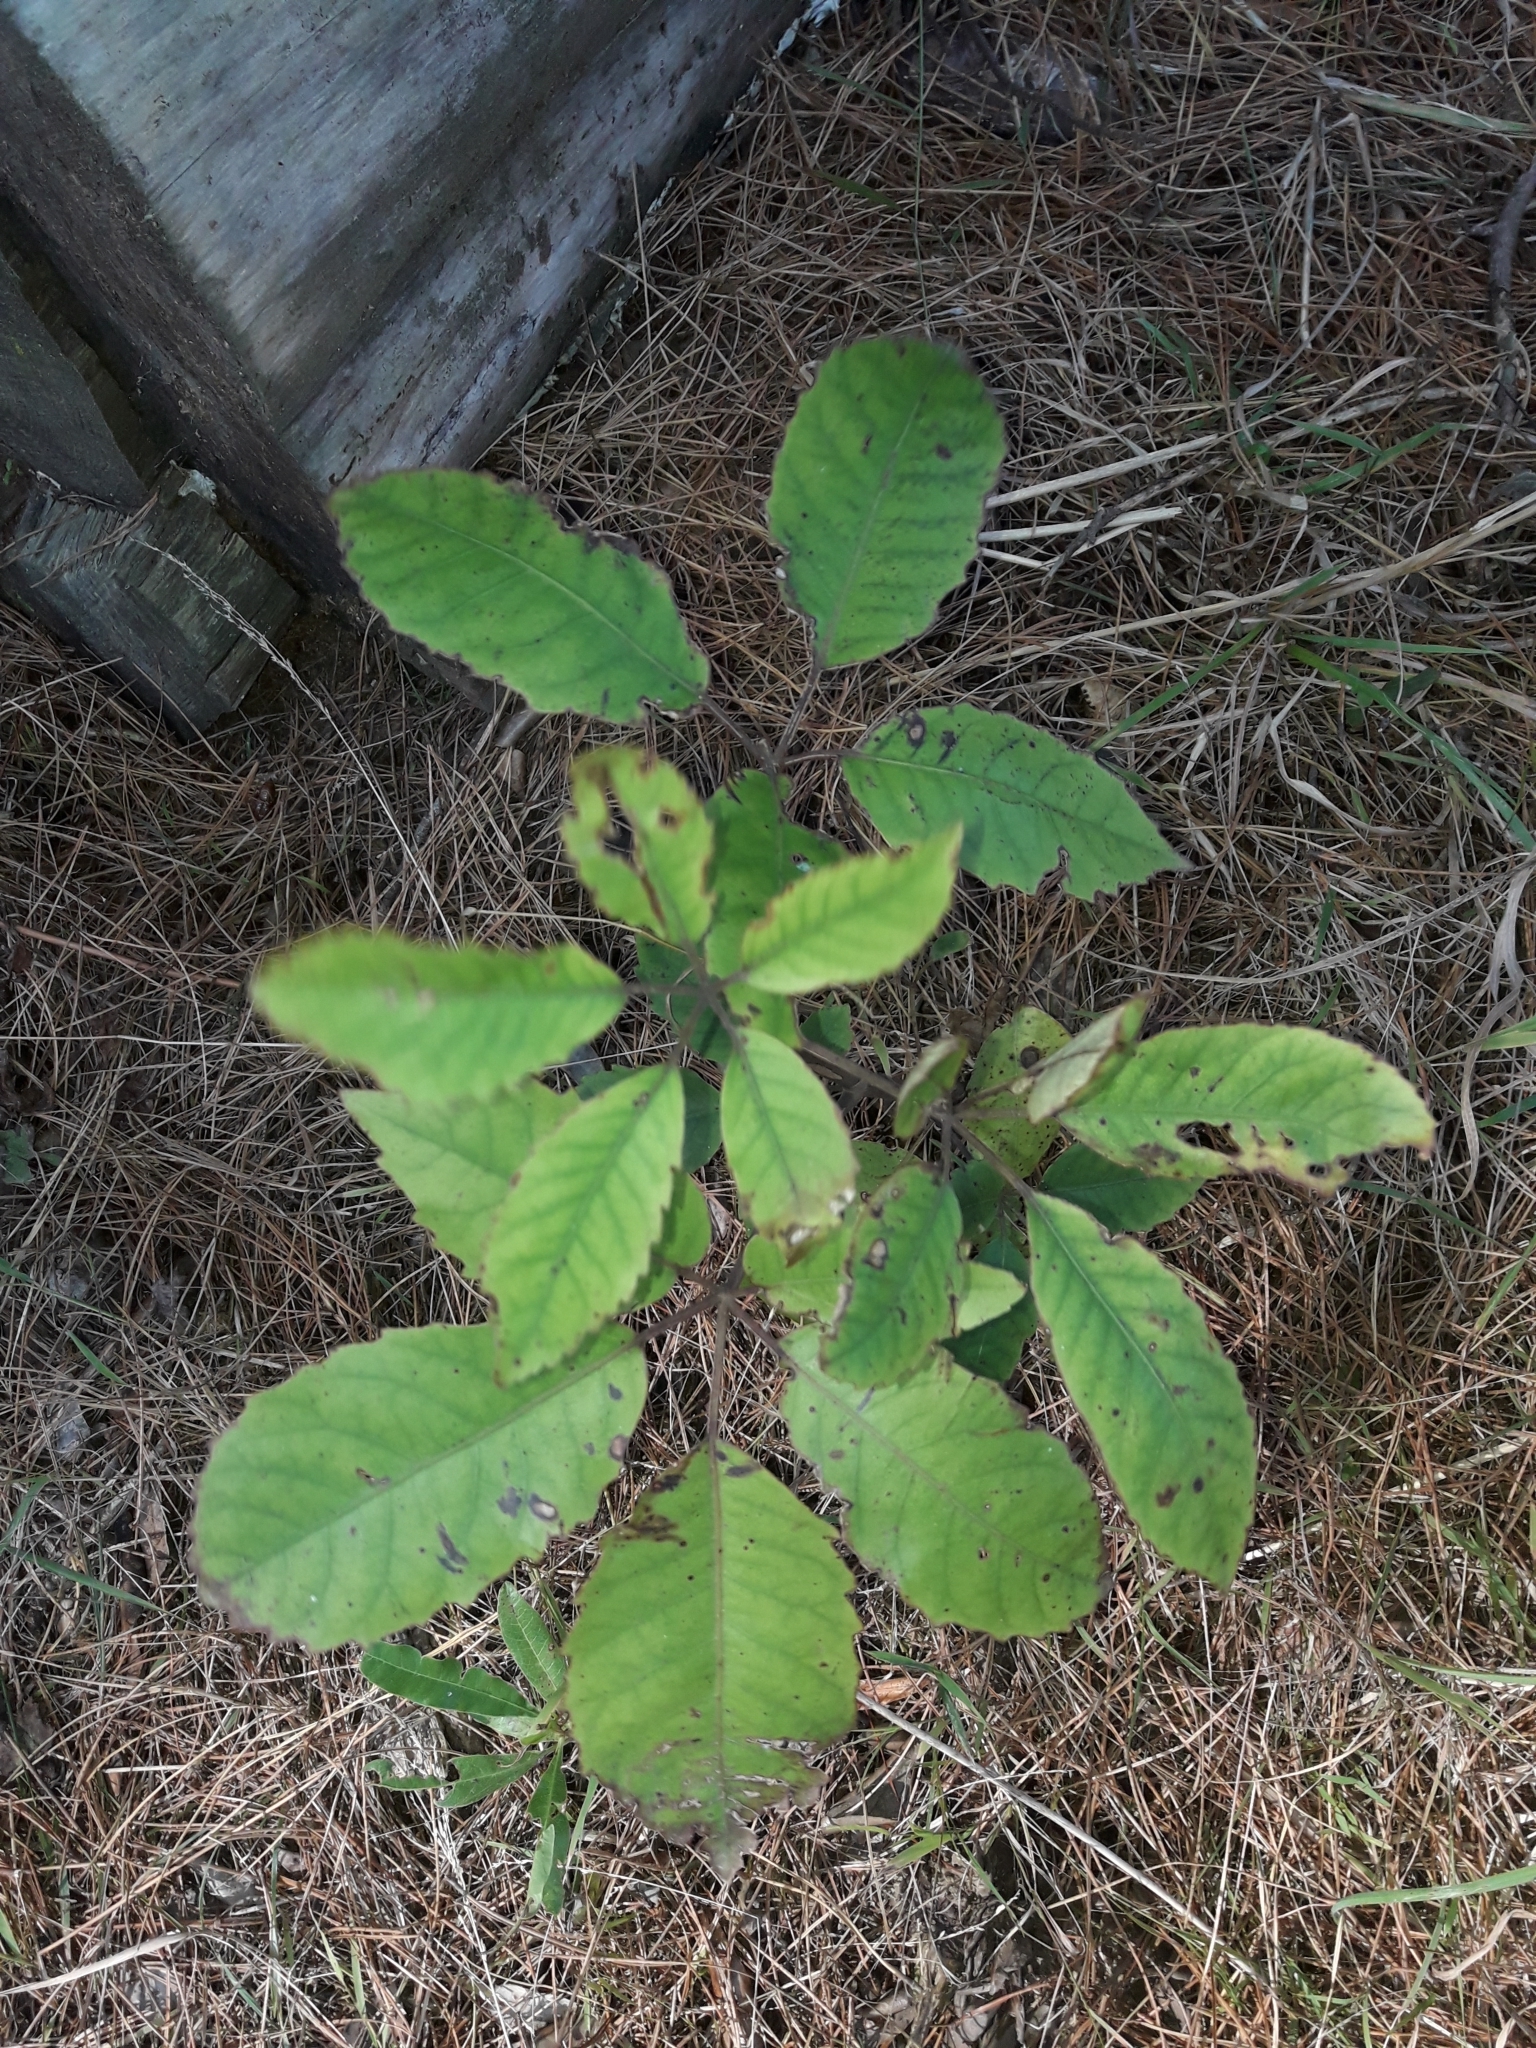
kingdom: Plantae
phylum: Tracheophyta
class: Magnoliopsida
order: Apiales
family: Araliaceae
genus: Neopanax
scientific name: Neopanax arboreus
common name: Five-fingers
